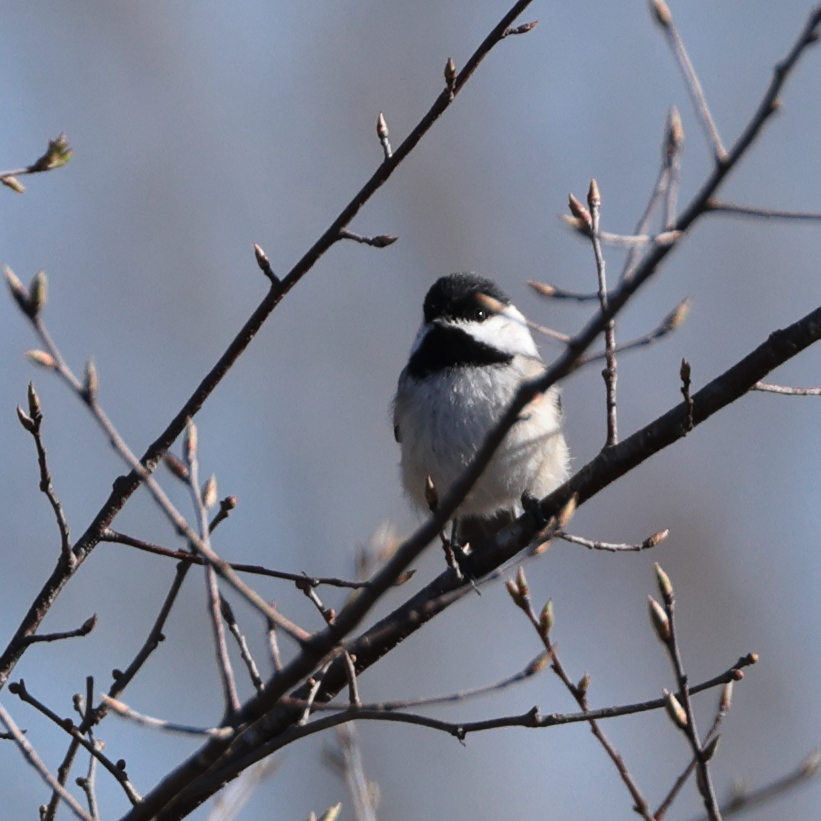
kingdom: Animalia
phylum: Chordata
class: Aves
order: Passeriformes
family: Paridae
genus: Poecile
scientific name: Poecile atricapillus
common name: Black-capped chickadee
